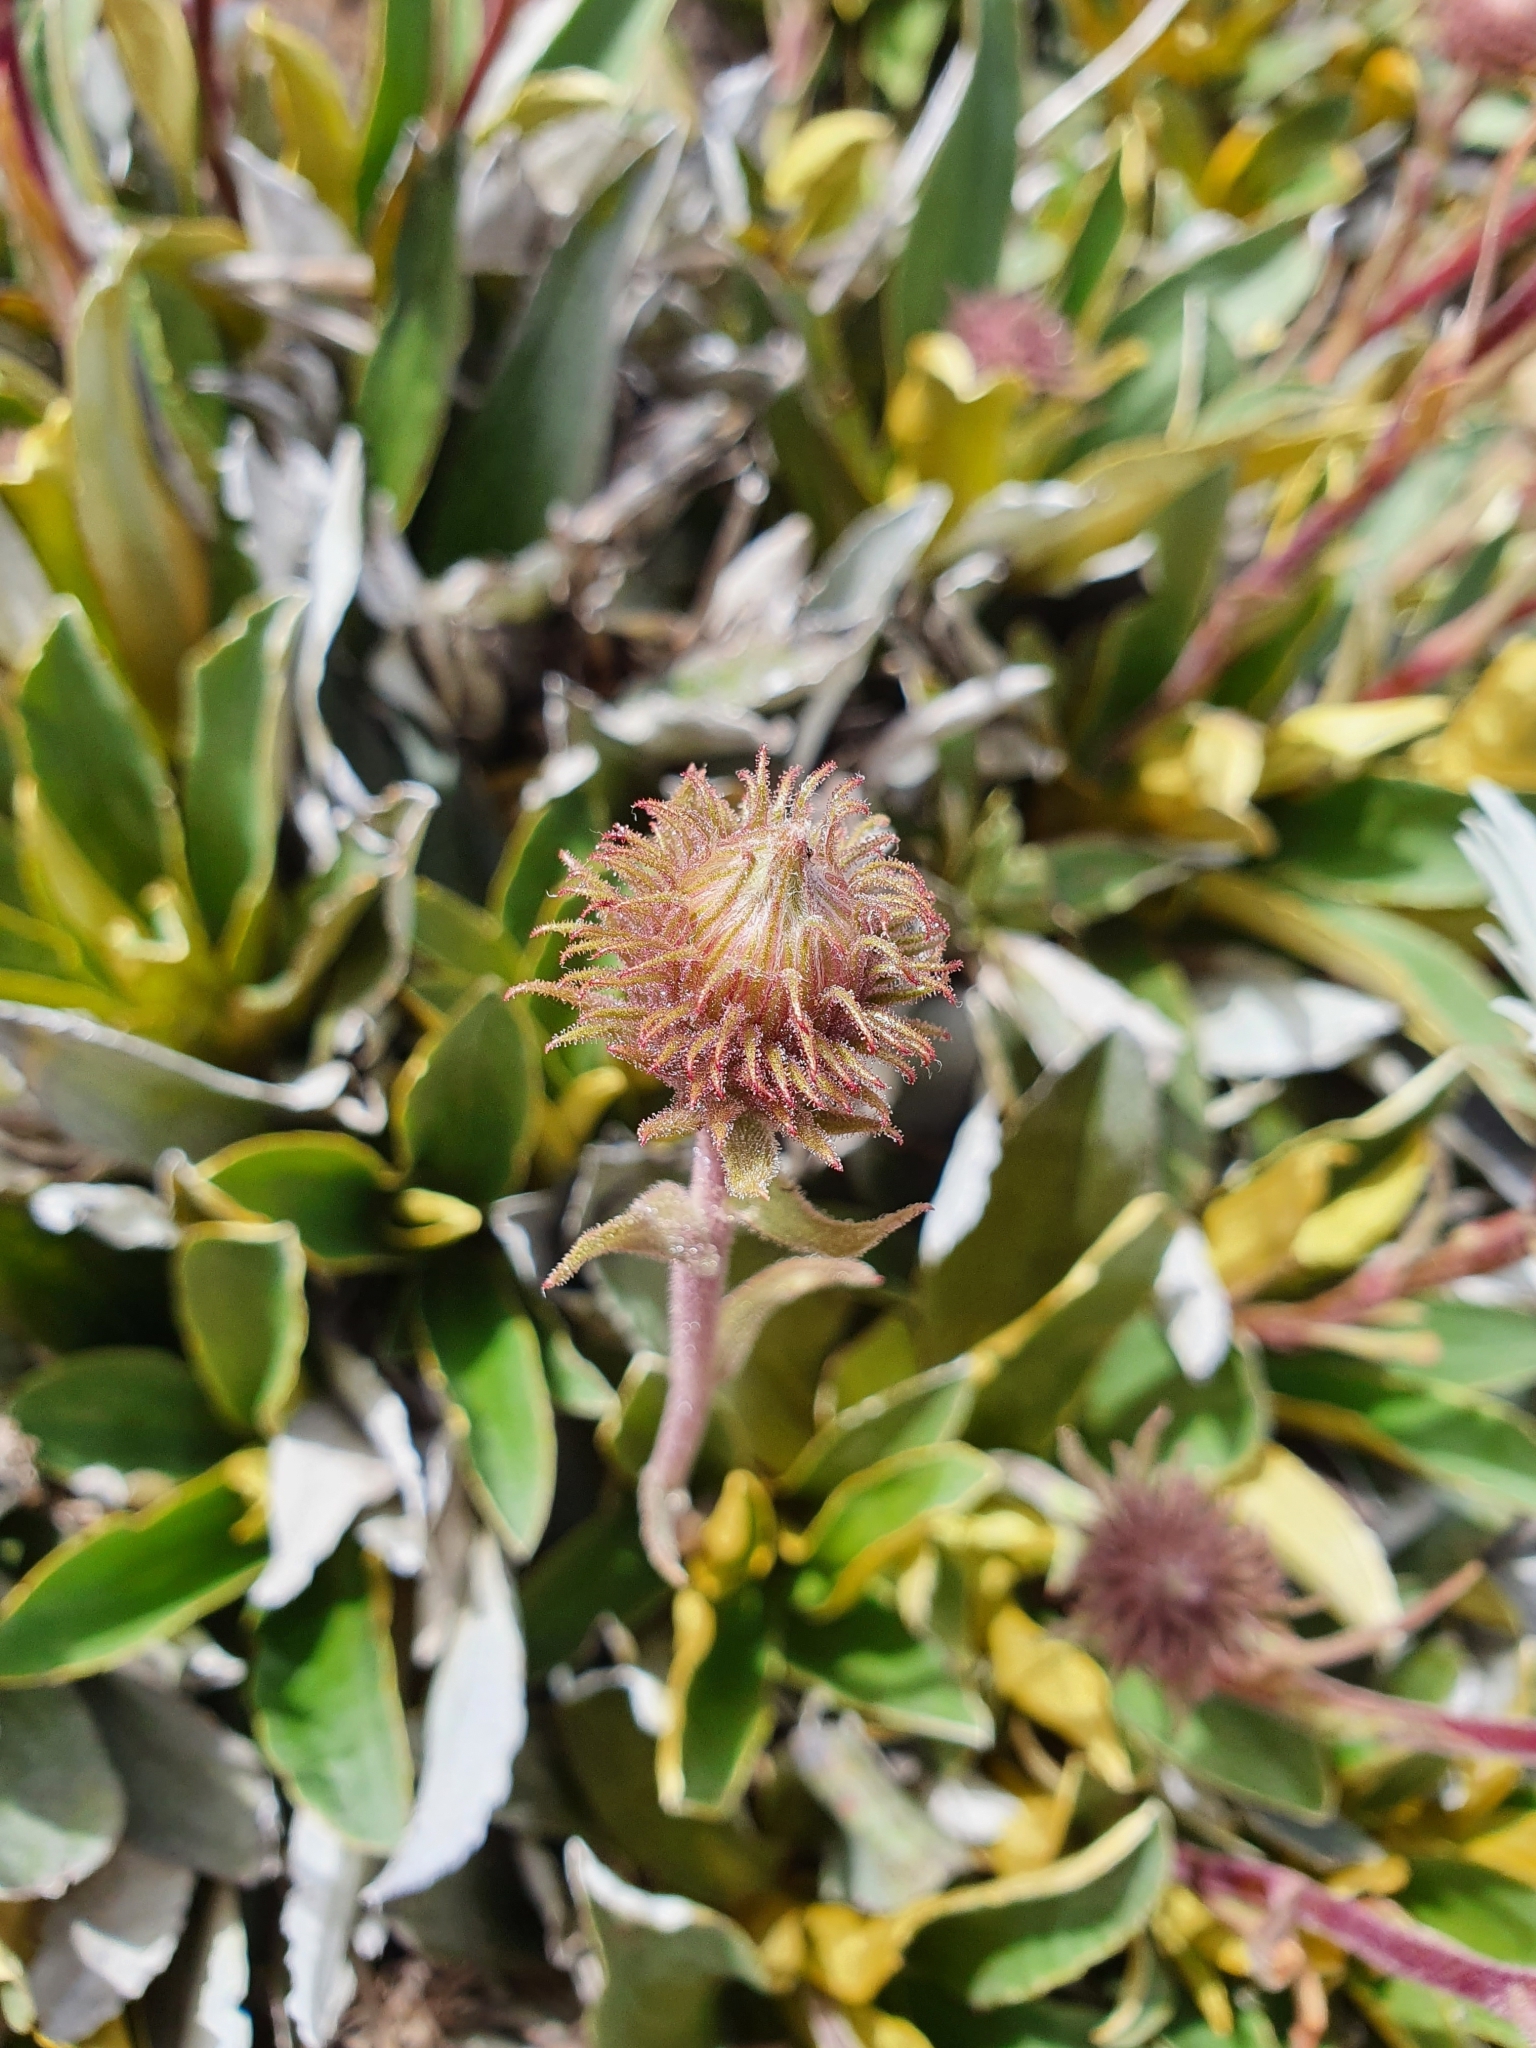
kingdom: Plantae
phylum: Tracheophyta
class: Magnoliopsida
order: Asterales
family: Asteraceae
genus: Celmisia
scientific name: Celmisia hieraciifolia
